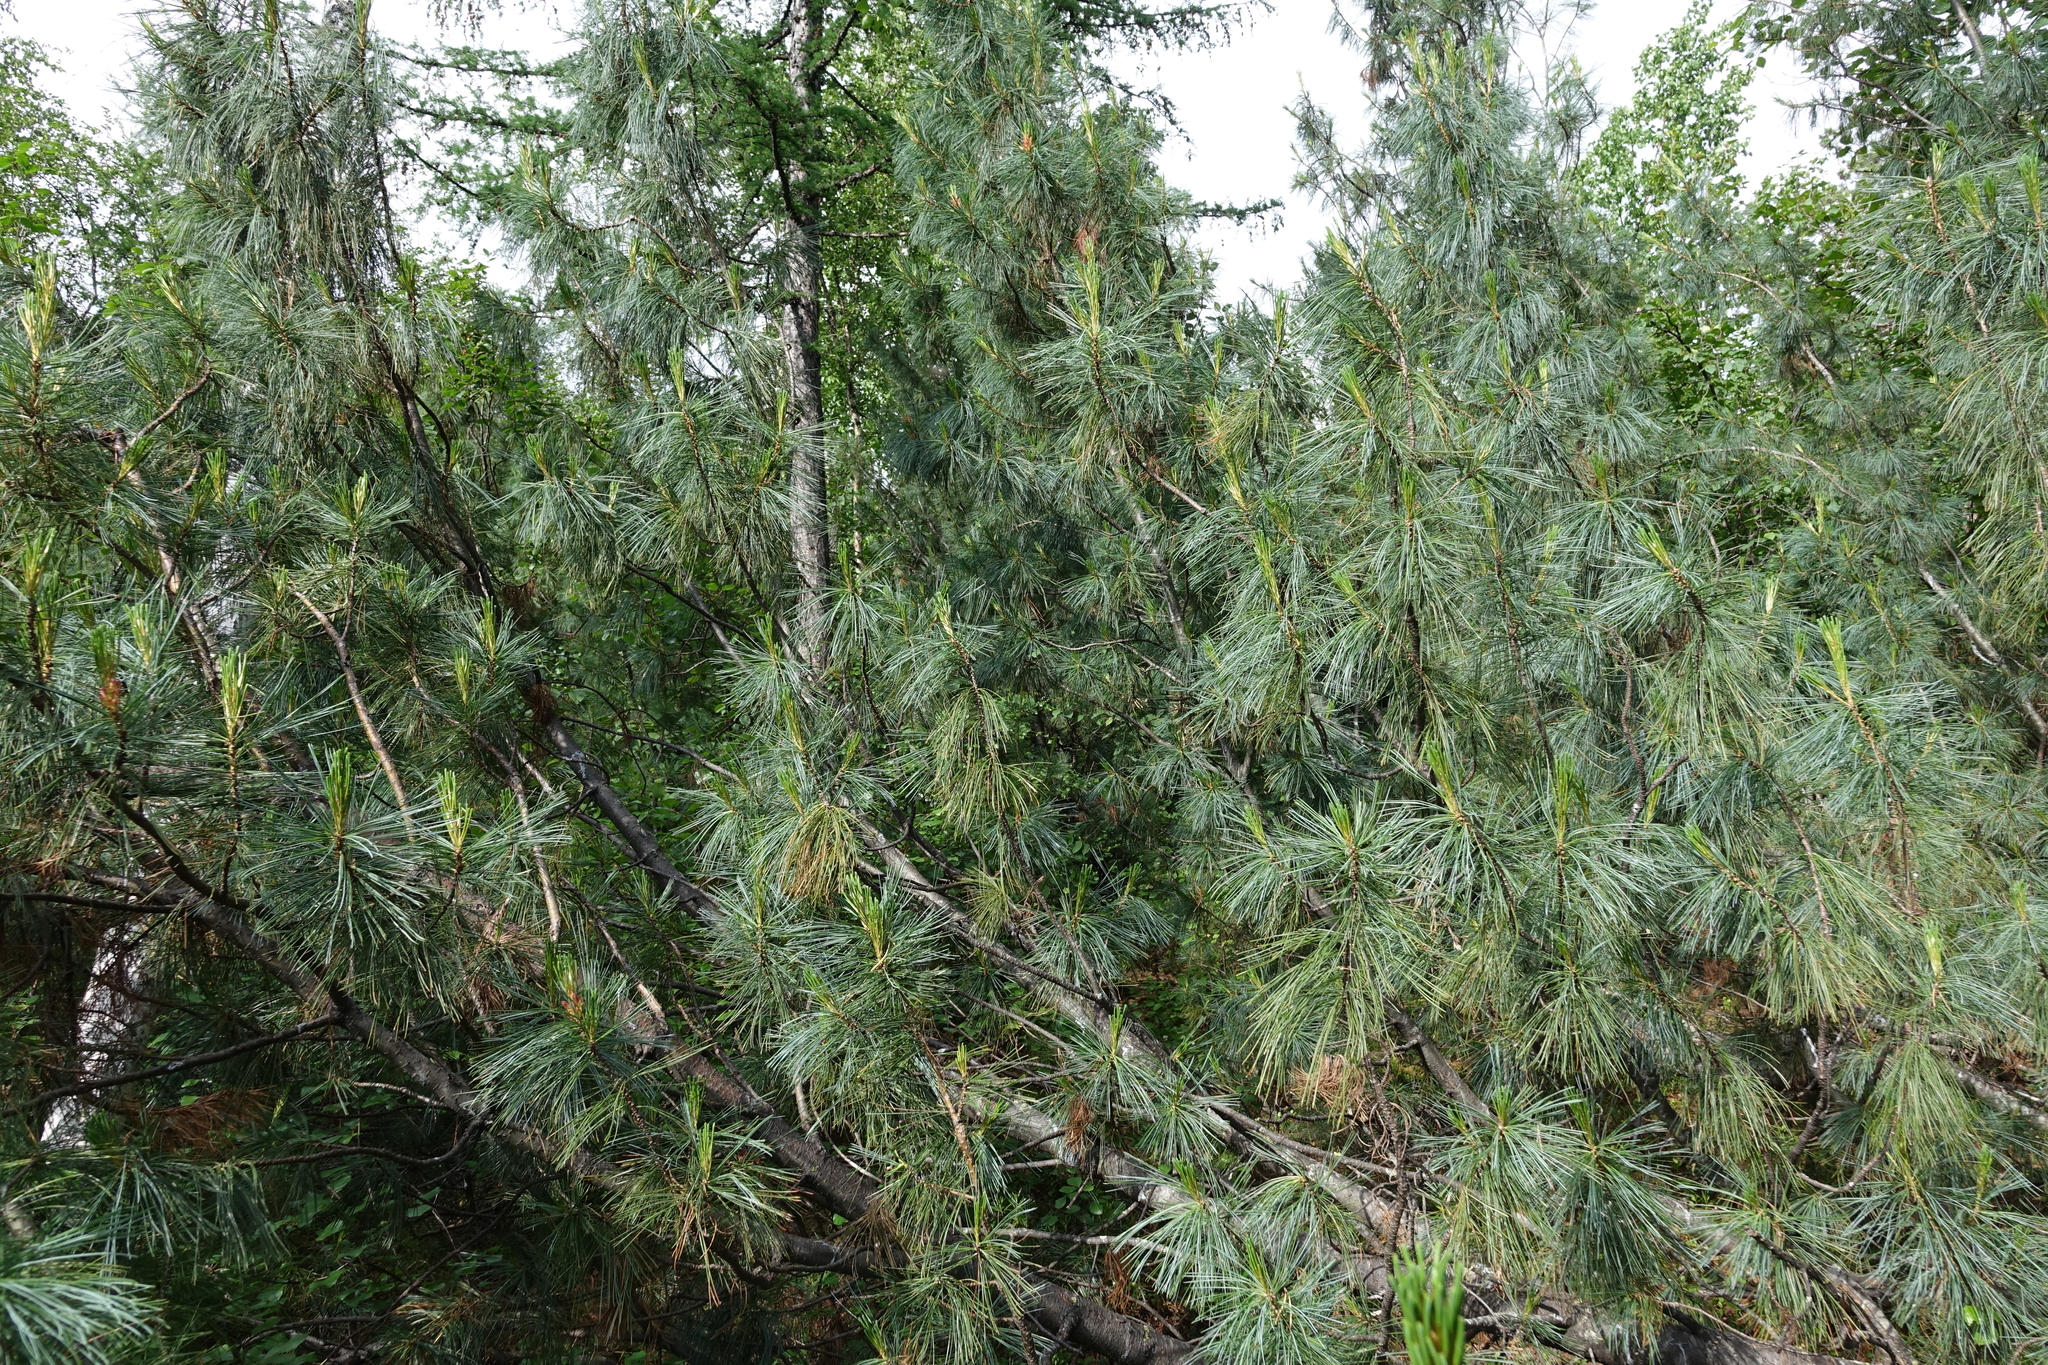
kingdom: Plantae
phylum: Tracheophyta
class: Pinopsida
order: Pinales
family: Pinaceae
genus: Pinus
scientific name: Pinus pumila
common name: Dwarf siberian pine
